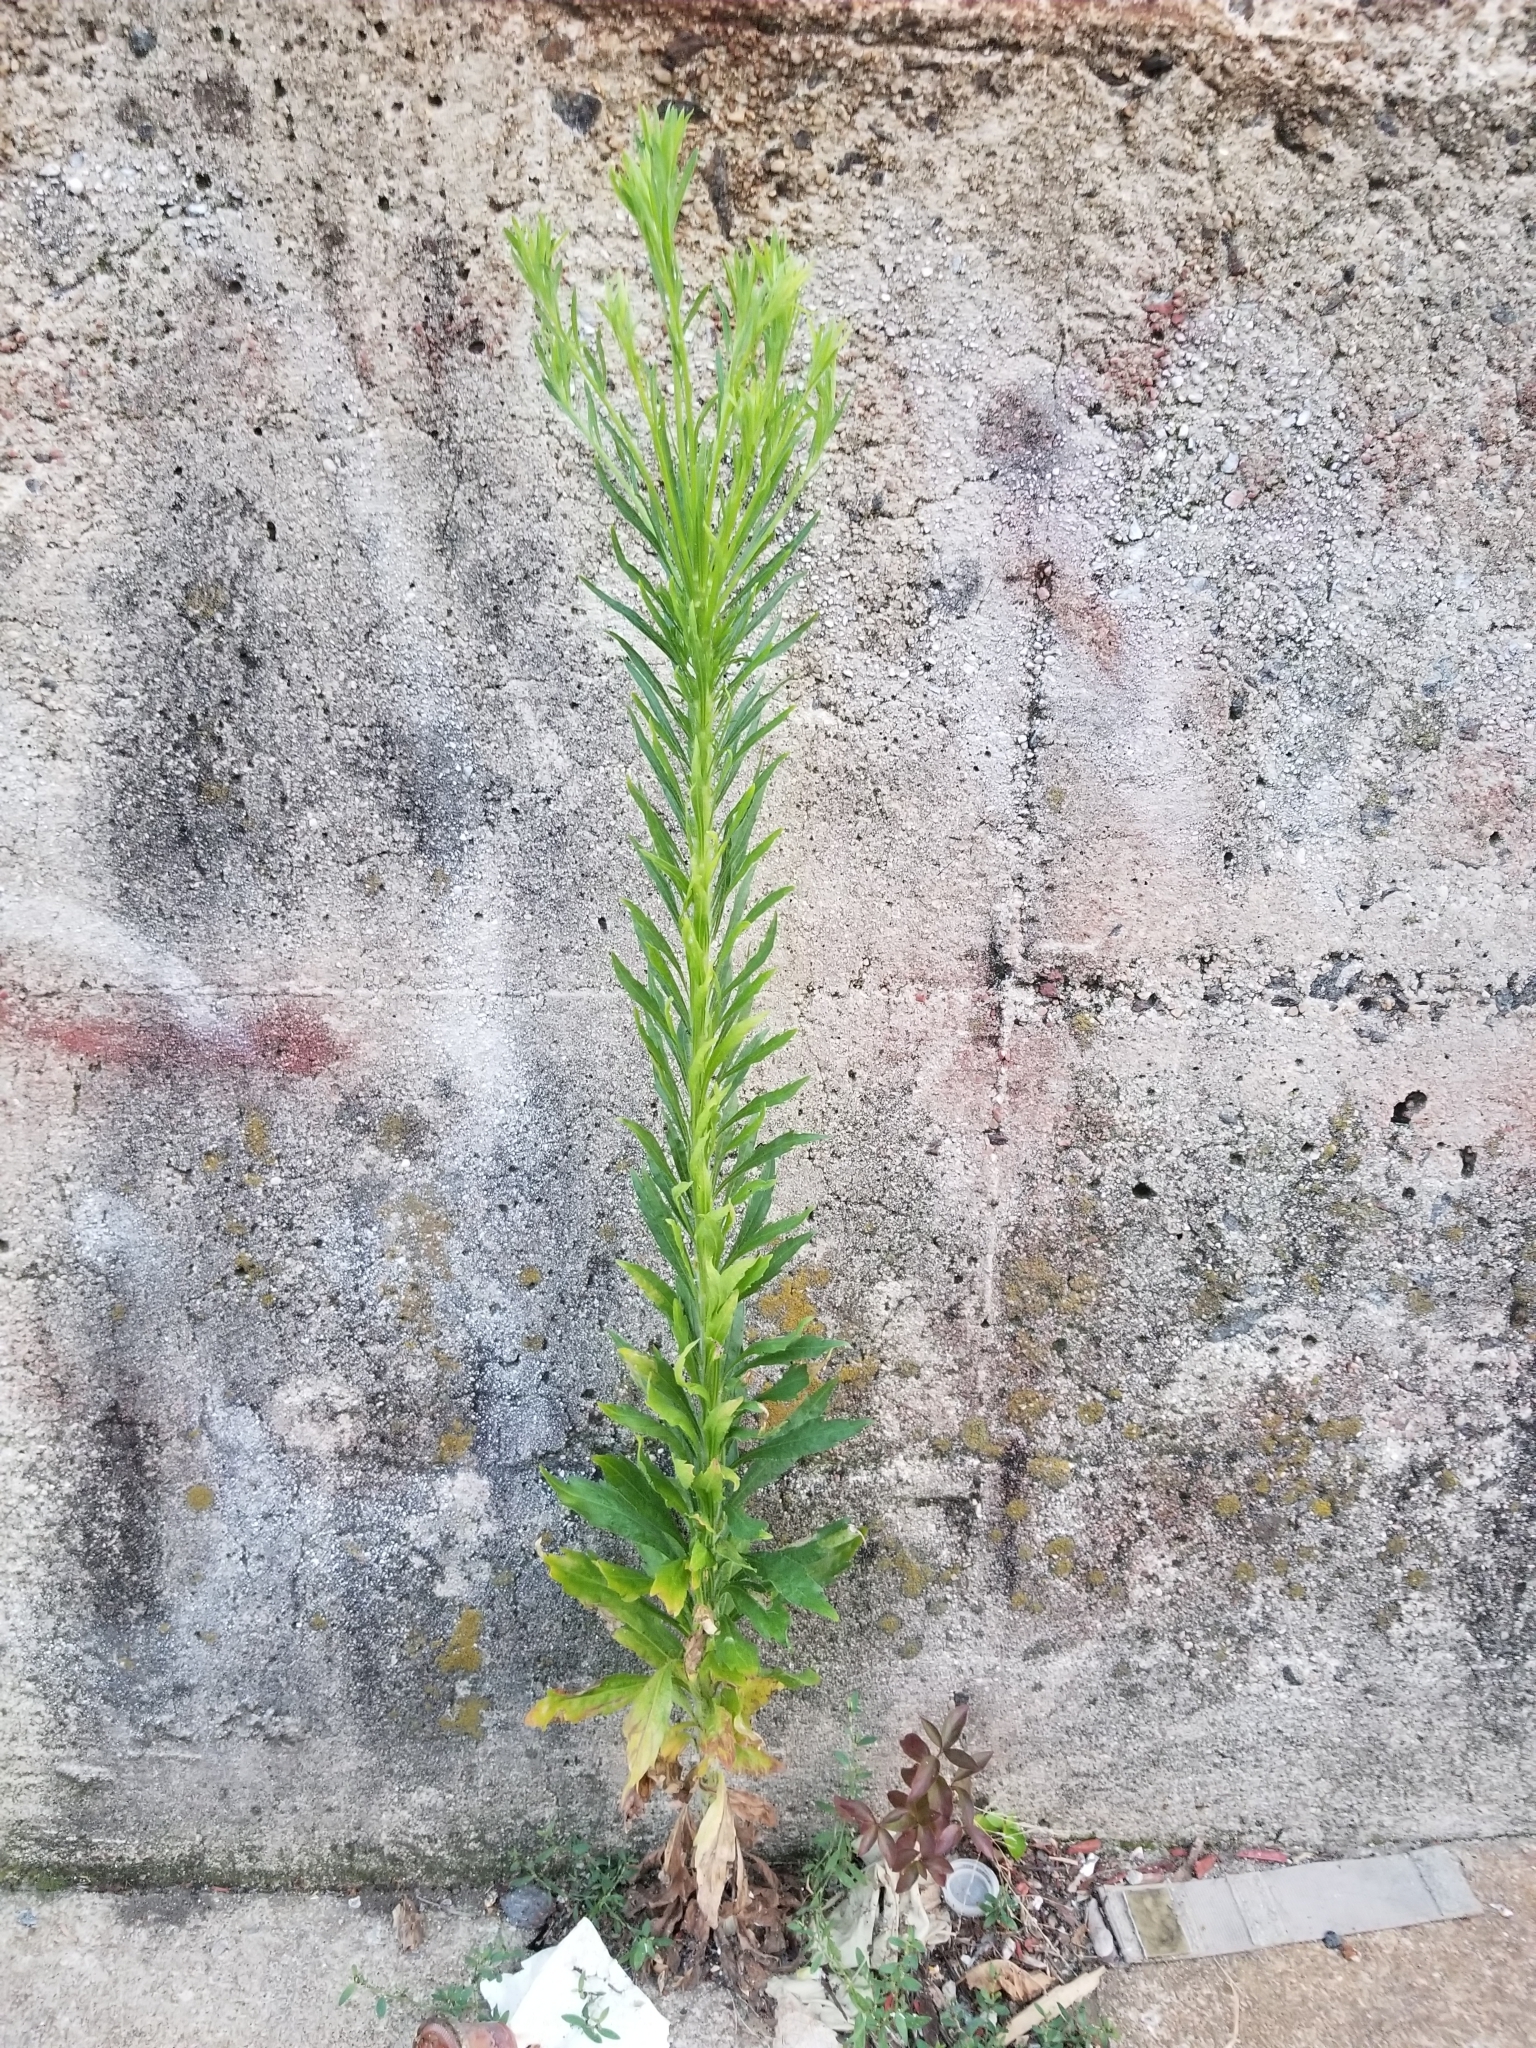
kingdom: Plantae
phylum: Tracheophyta
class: Magnoliopsida
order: Asterales
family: Asteraceae
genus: Erigeron
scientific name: Erigeron canadensis
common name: Canadian fleabane
